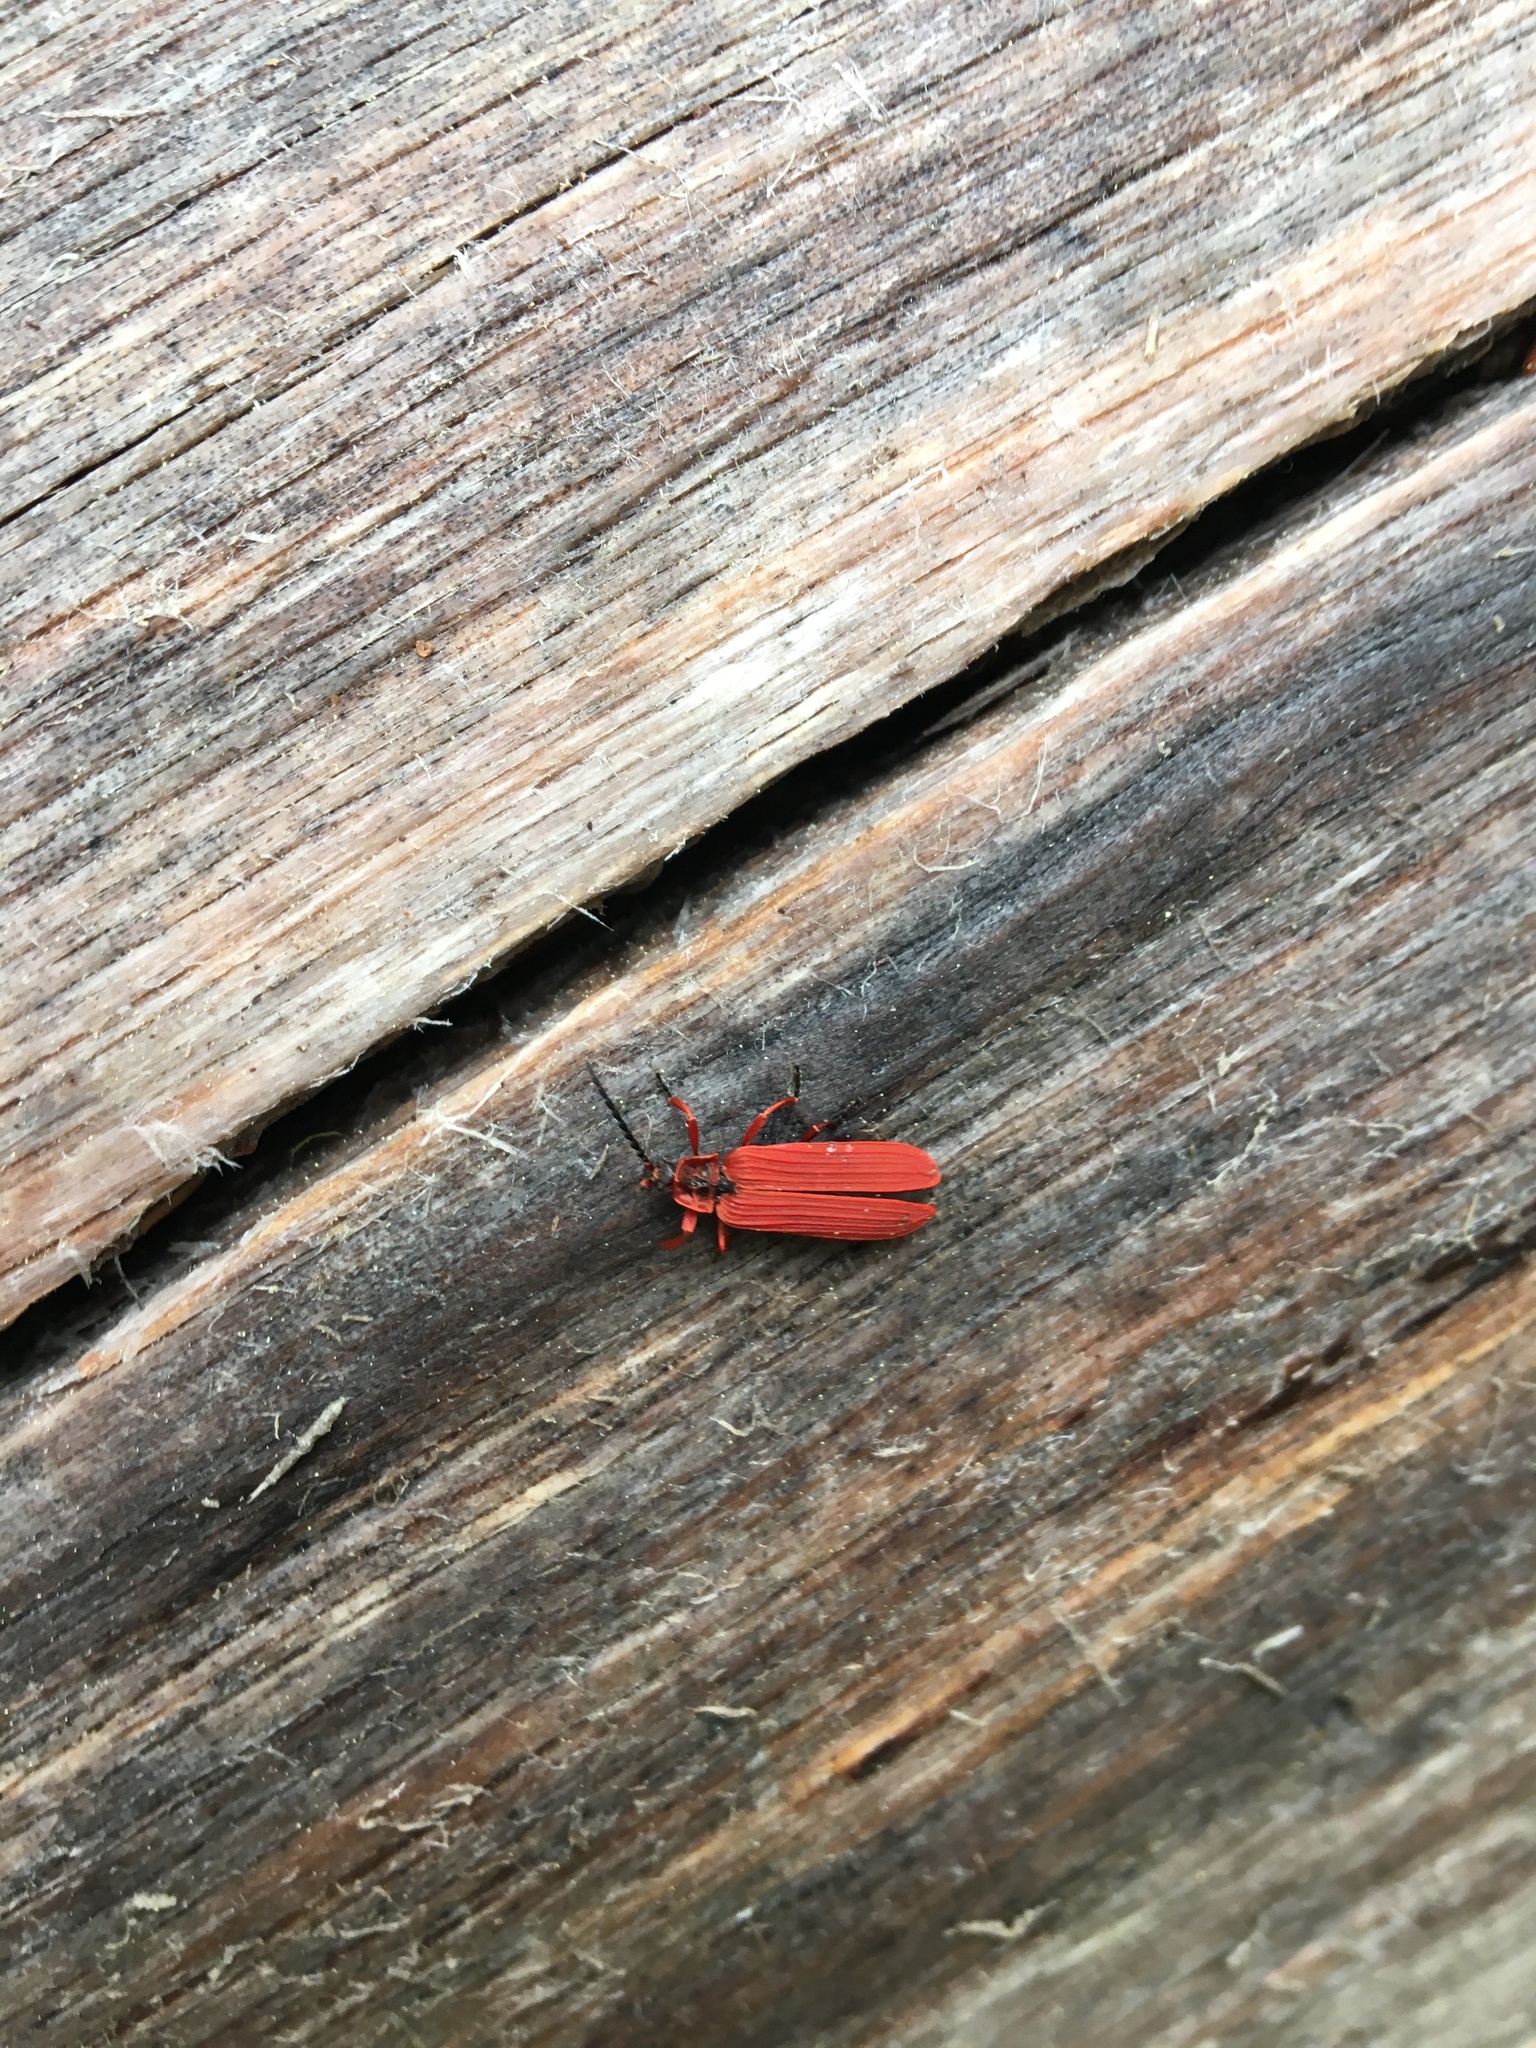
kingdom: Animalia
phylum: Arthropoda
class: Insecta
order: Coleoptera
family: Lycidae
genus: Dictyoptera
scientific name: Dictyoptera simplicipes
